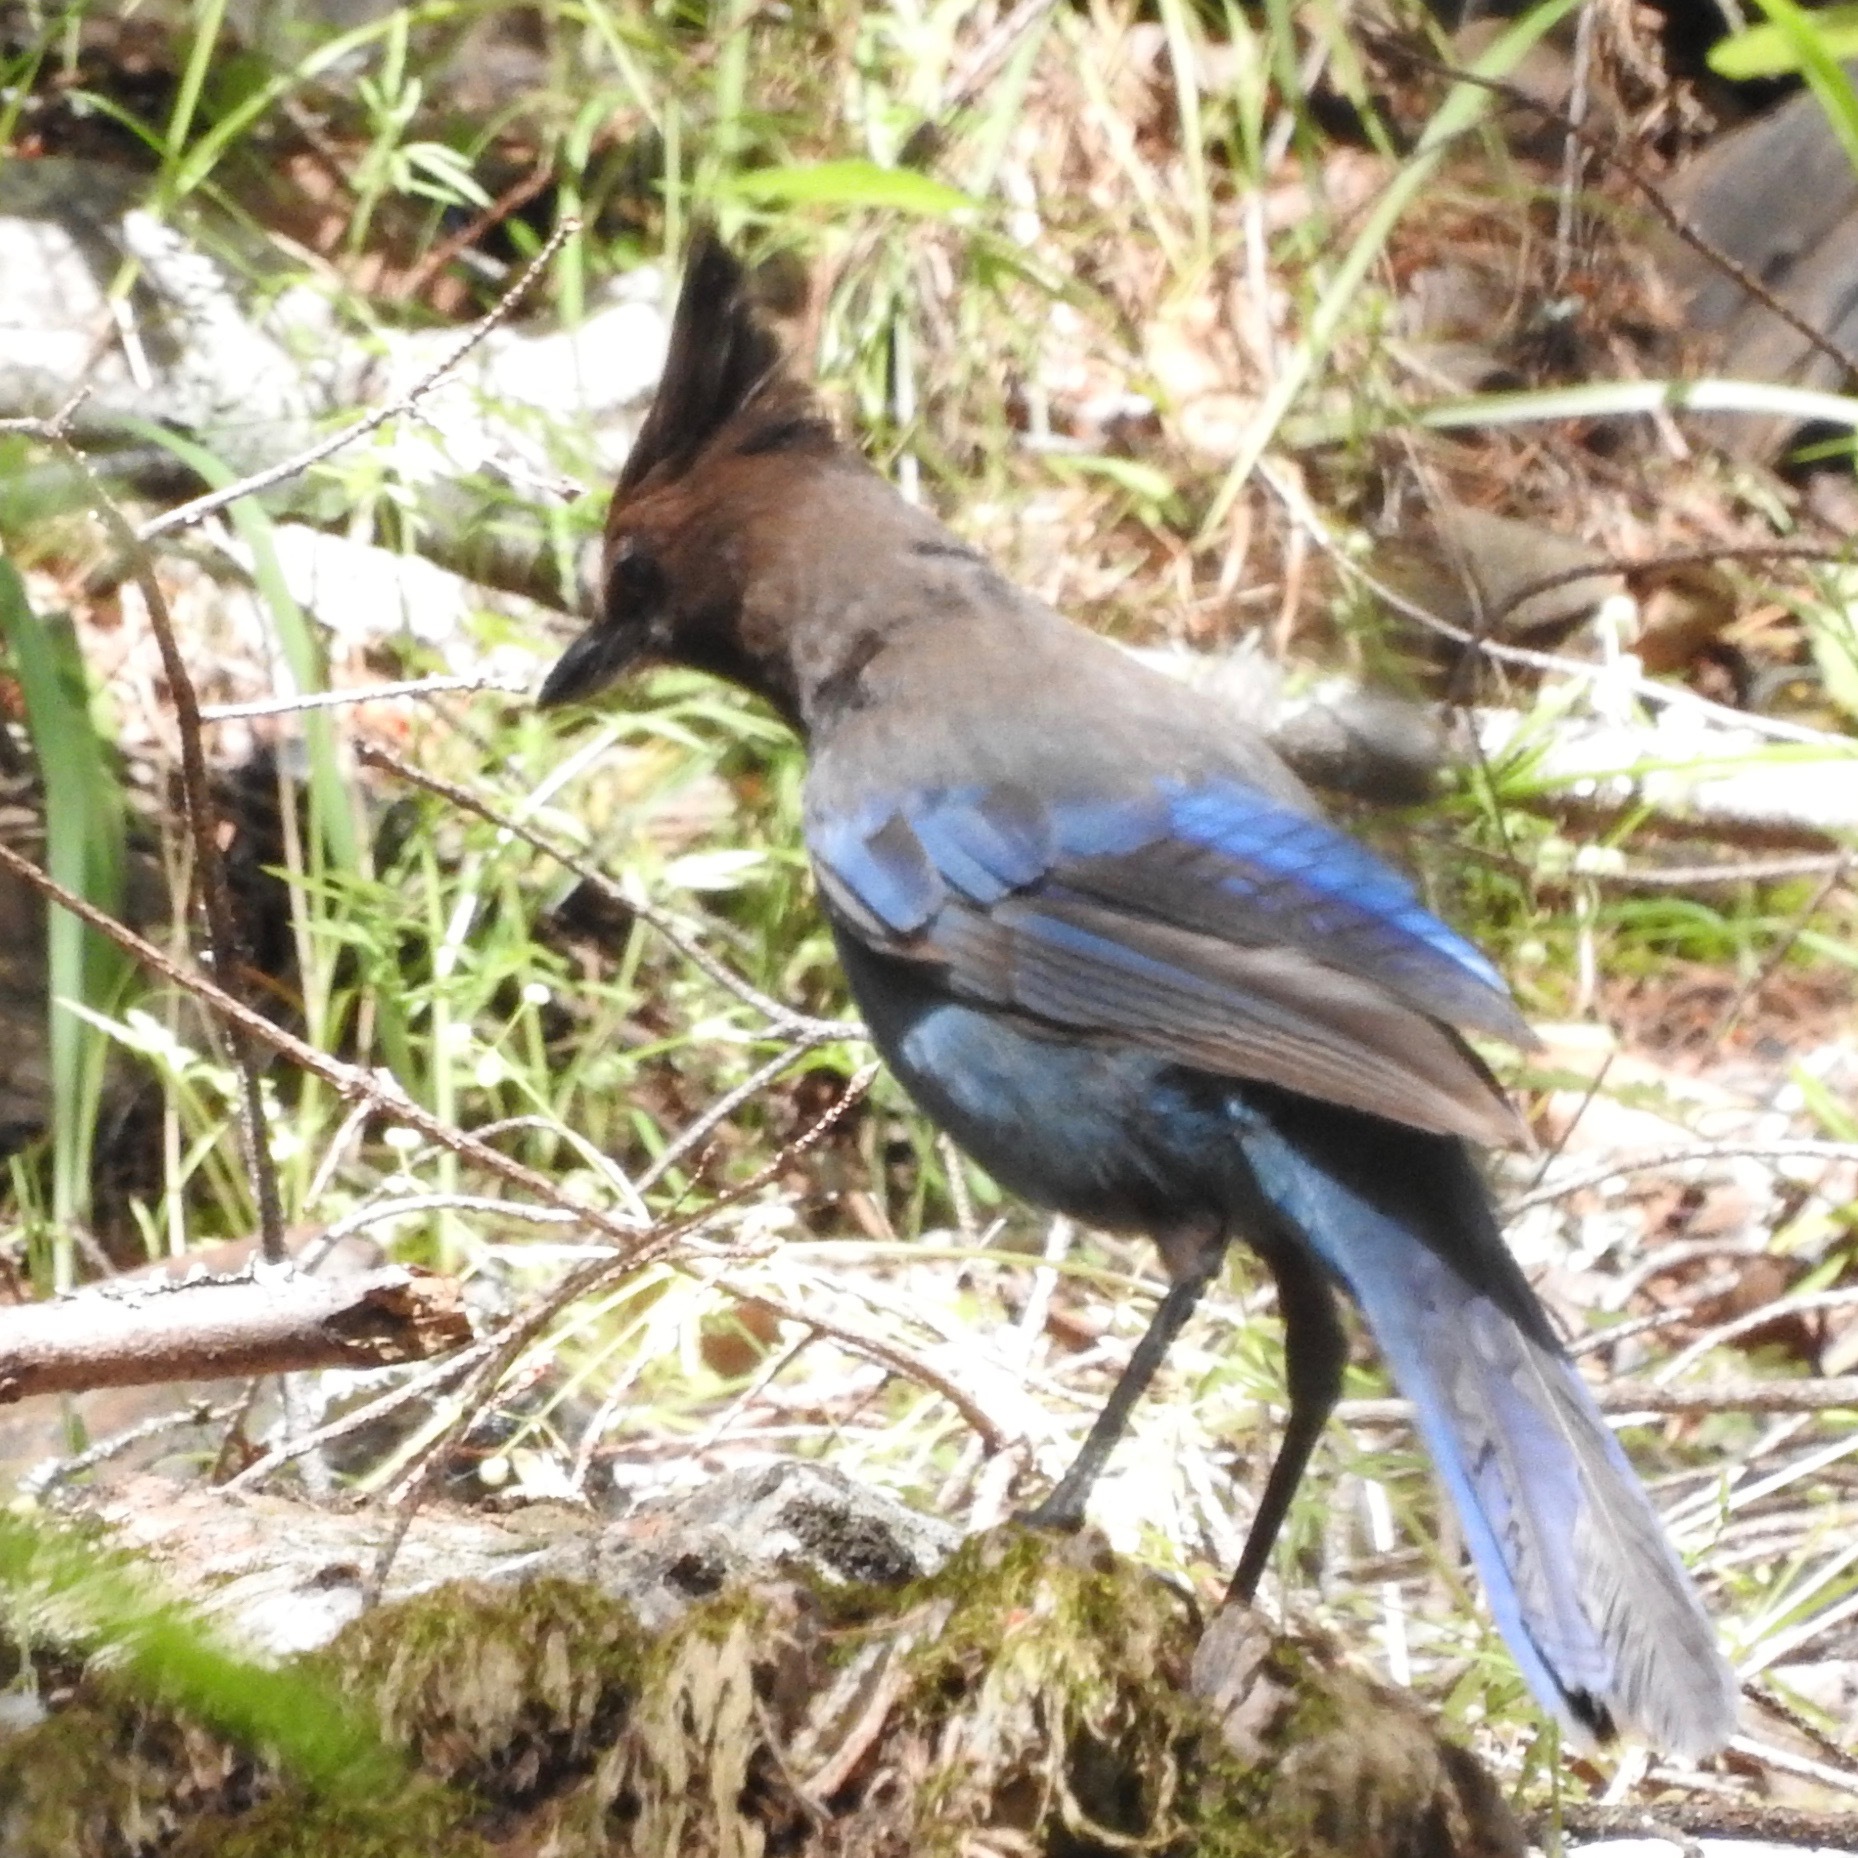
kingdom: Animalia
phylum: Chordata
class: Aves
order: Passeriformes
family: Corvidae
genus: Cyanocitta
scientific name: Cyanocitta stelleri
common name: Steller's jay
